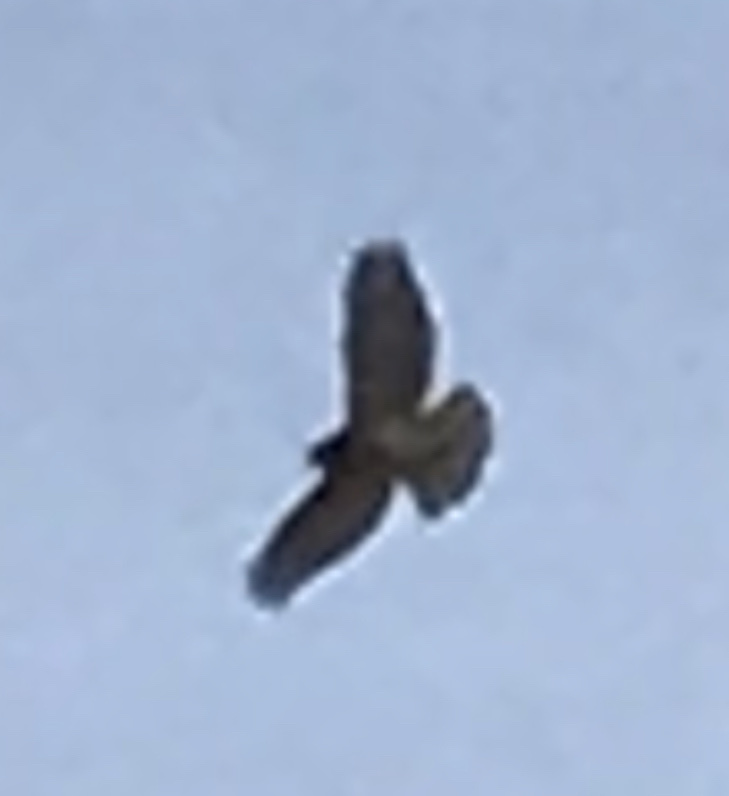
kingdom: Animalia
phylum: Chordata
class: Aves
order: Accipitriformes
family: Accipitridae
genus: Buteo
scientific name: Buteo jamaicensis
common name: Red-tailed hawk
